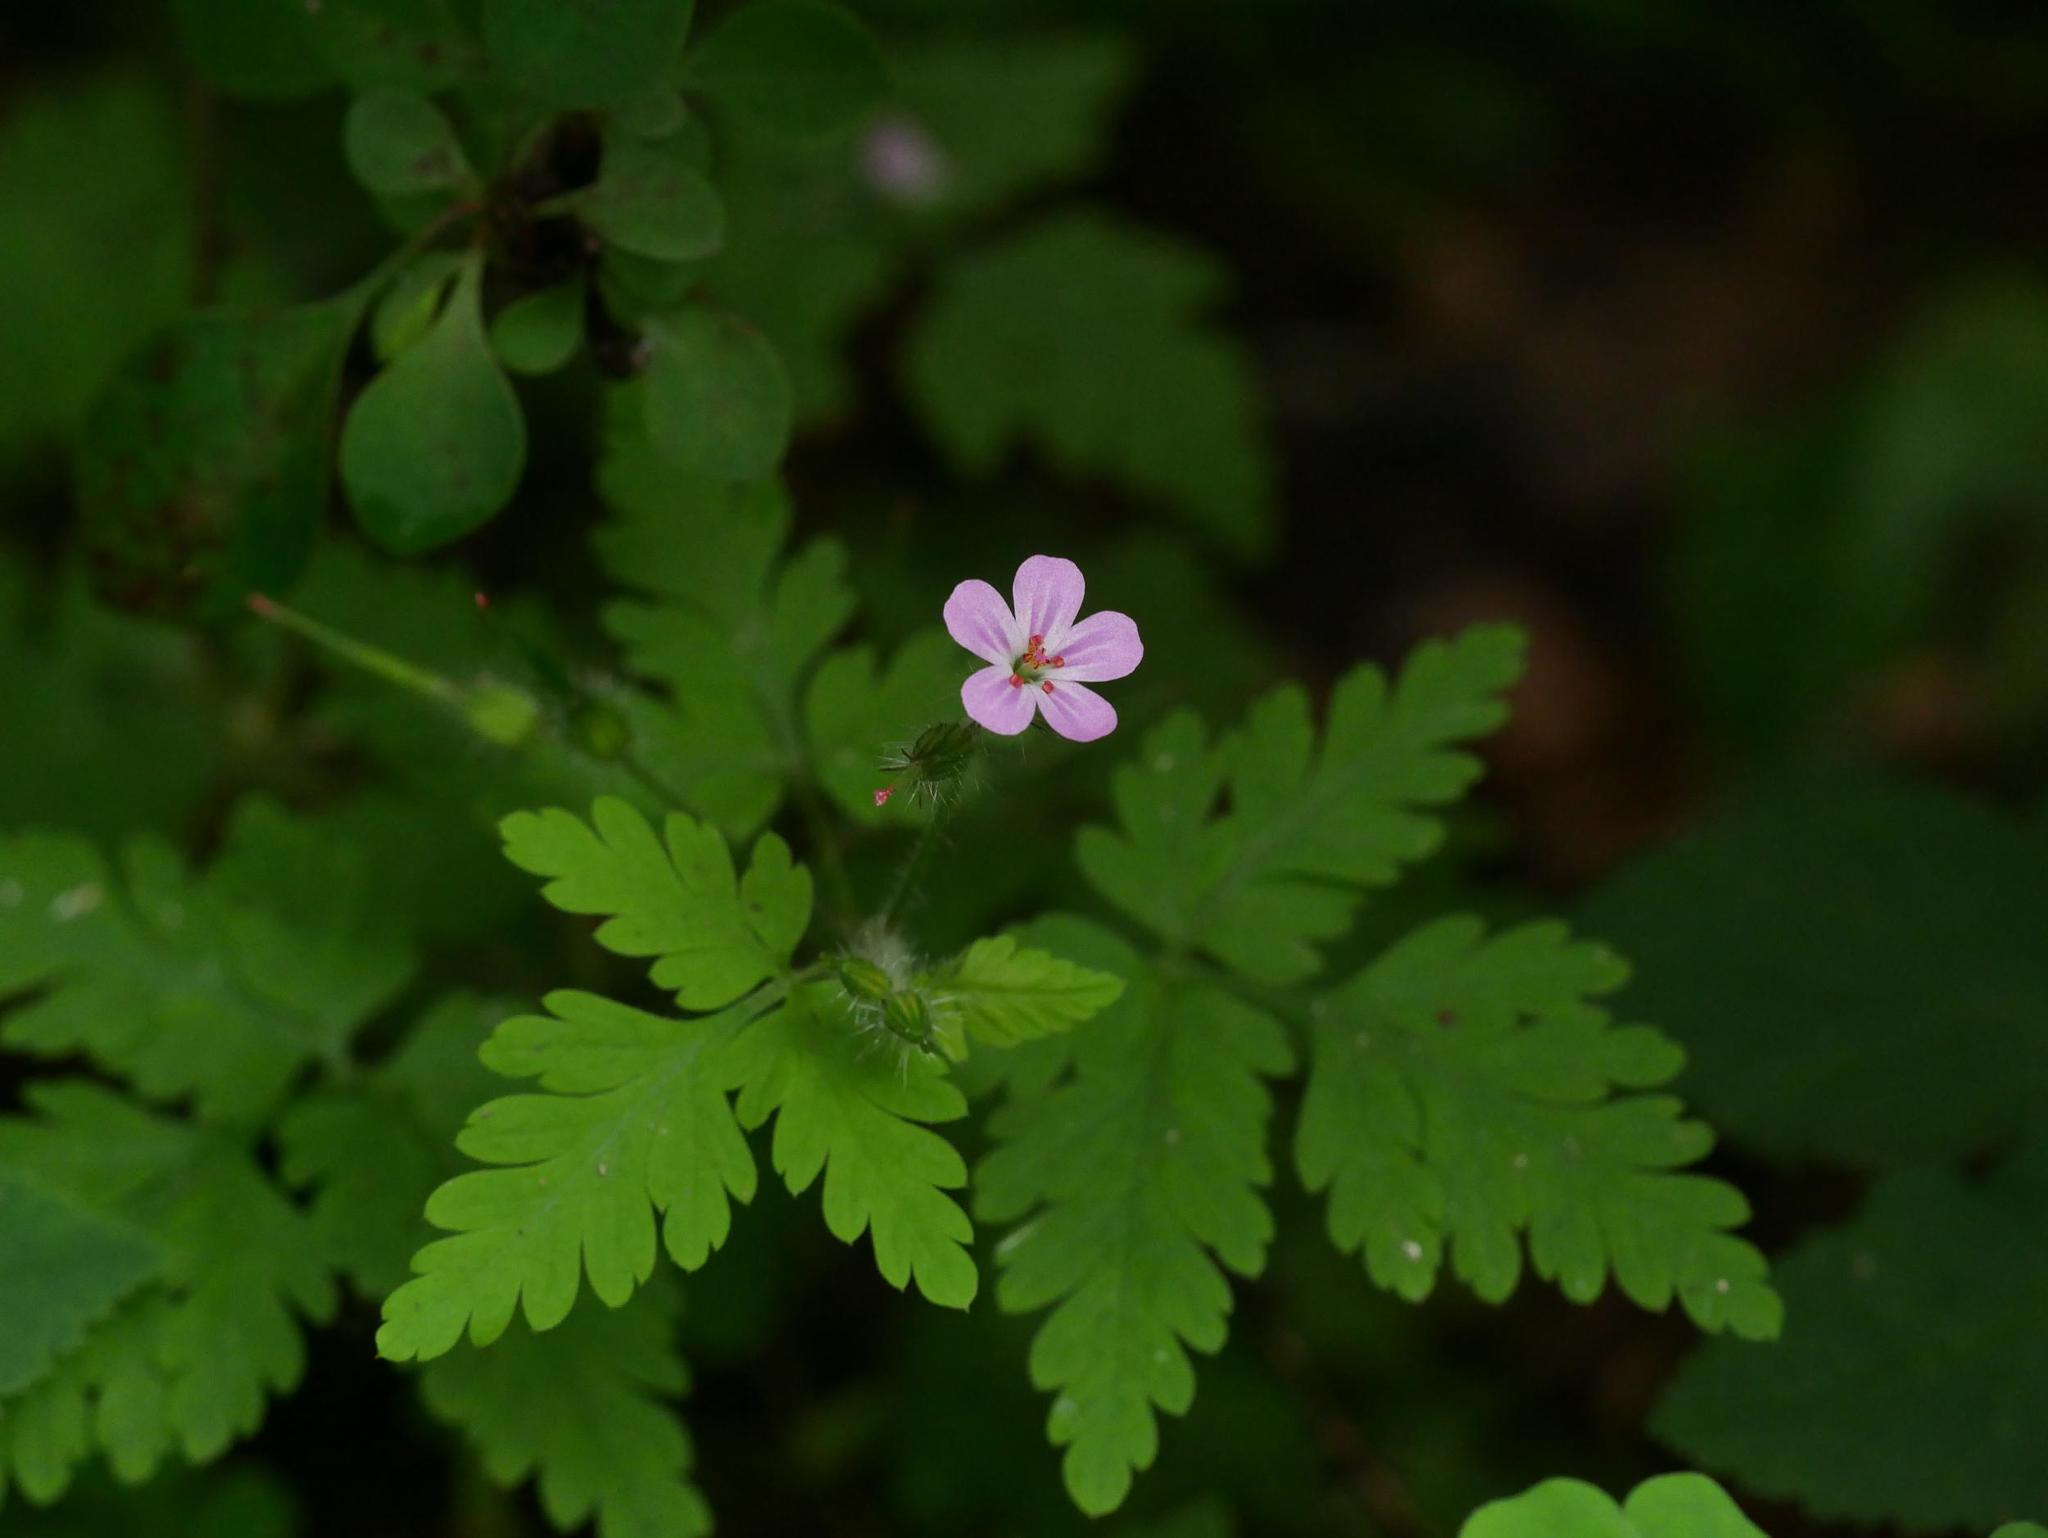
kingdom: Plantae
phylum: Tracheophyta
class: Magnoliopsida
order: Geraniales
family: Geraniaceae
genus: Geranium
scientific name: Geranium robertianum
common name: Herb-robert
